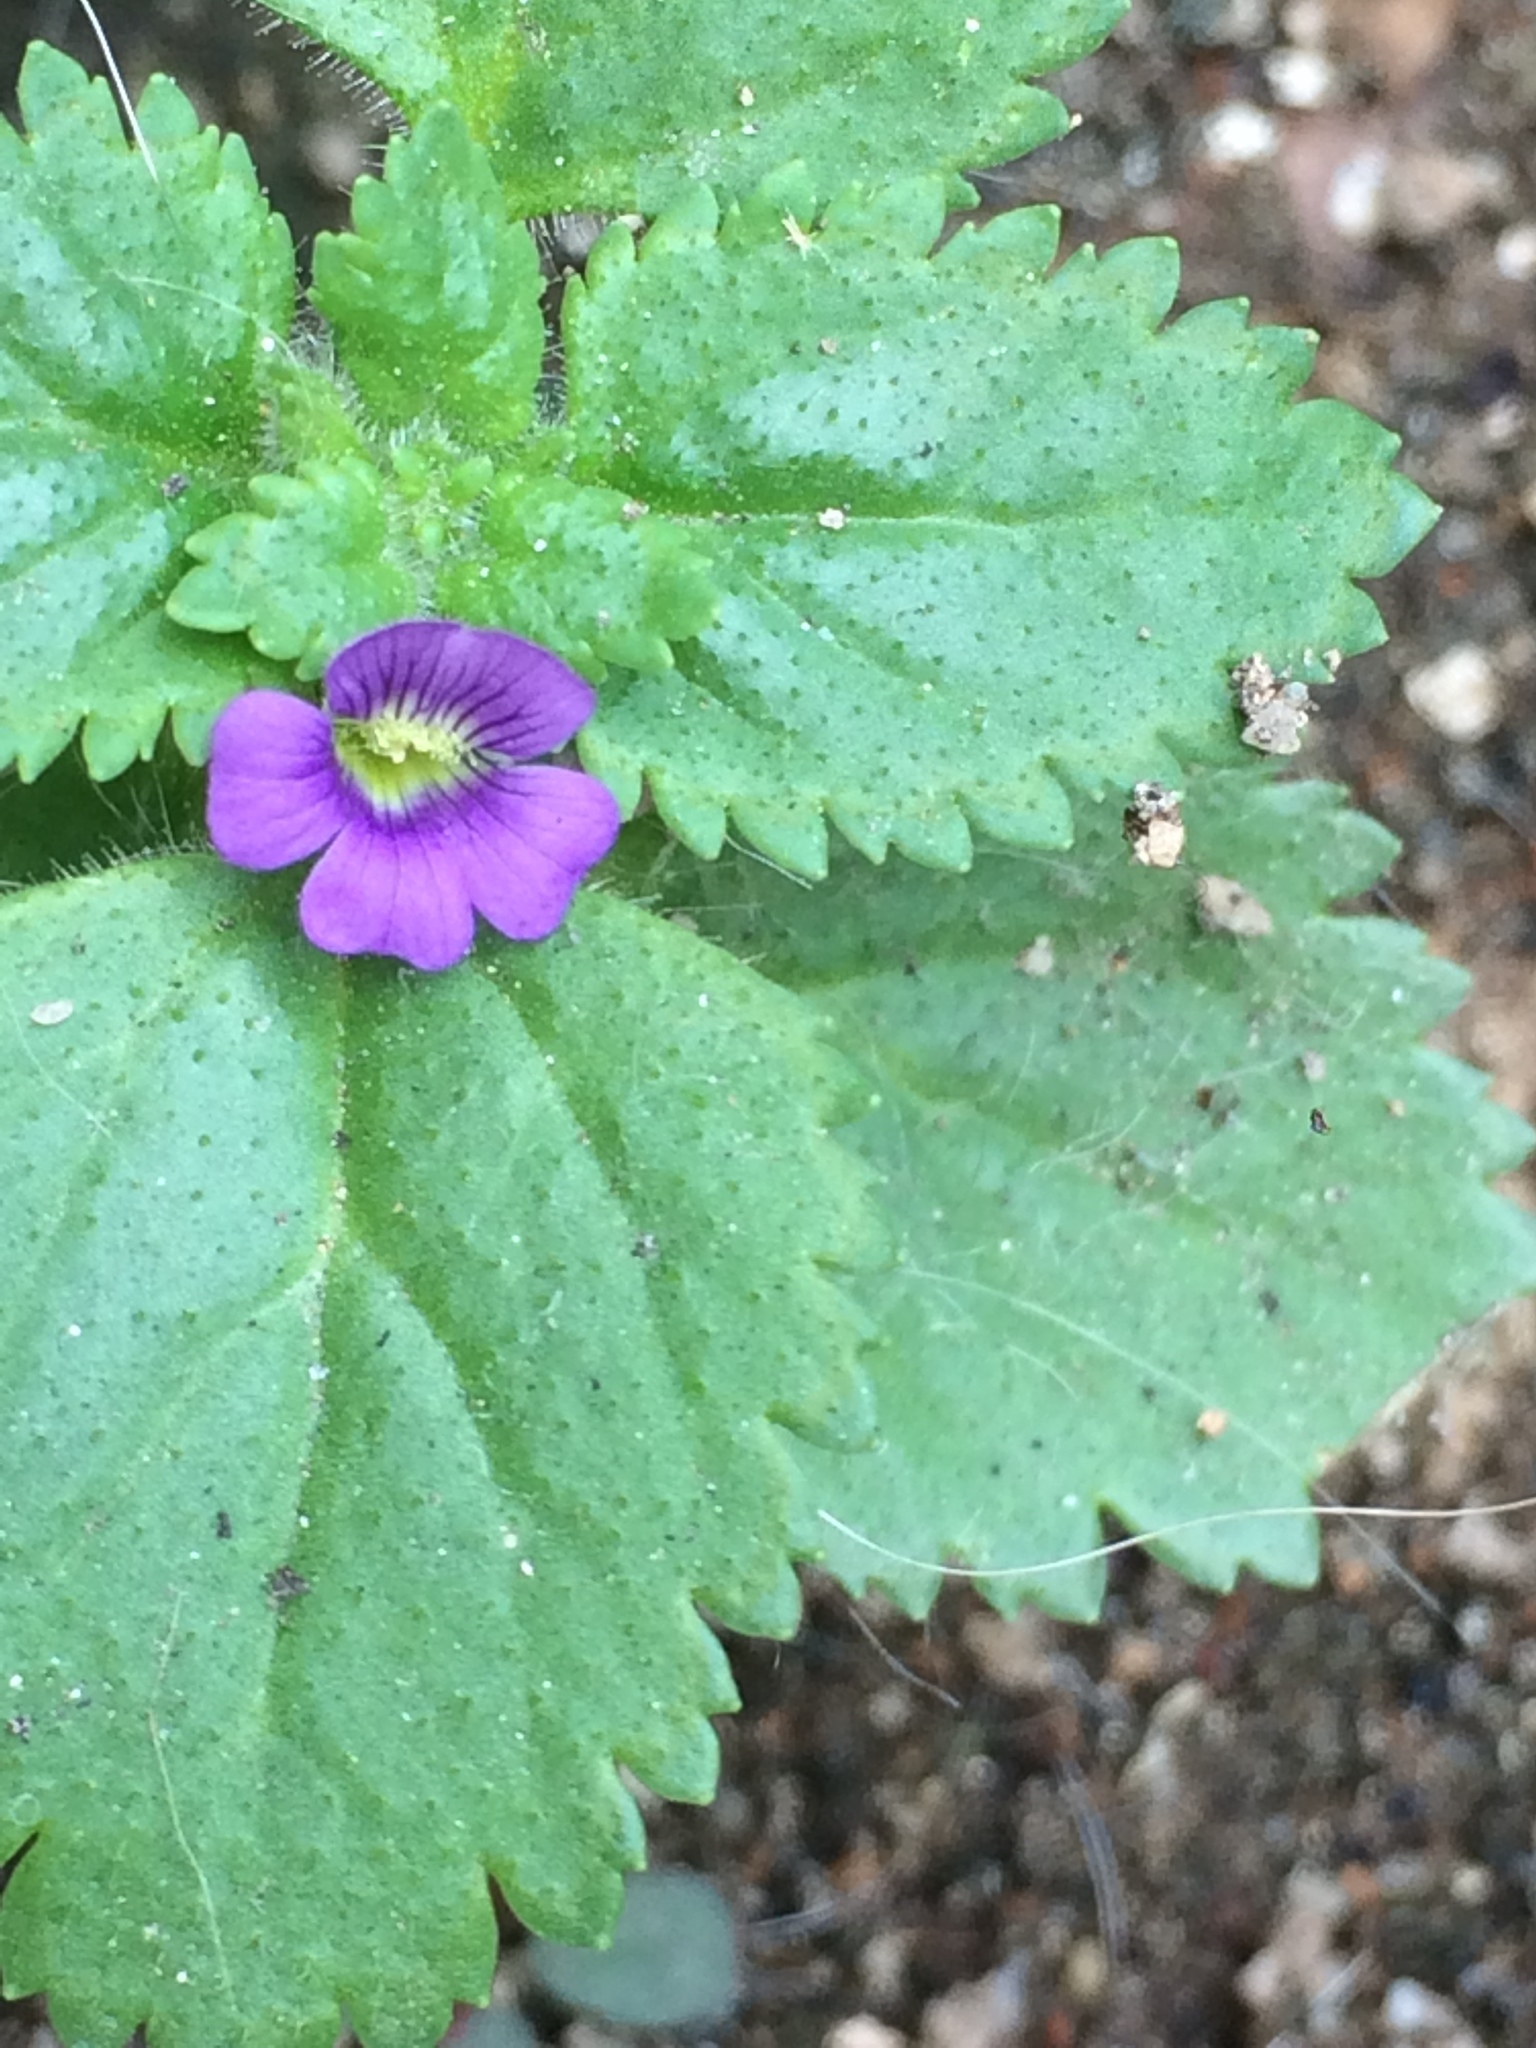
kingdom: Plantae
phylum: Tracheophyta
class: Magnoliopsida
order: Lamiales
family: Plantaginaceae
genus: Stemodia
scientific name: Stemodia verticillata
